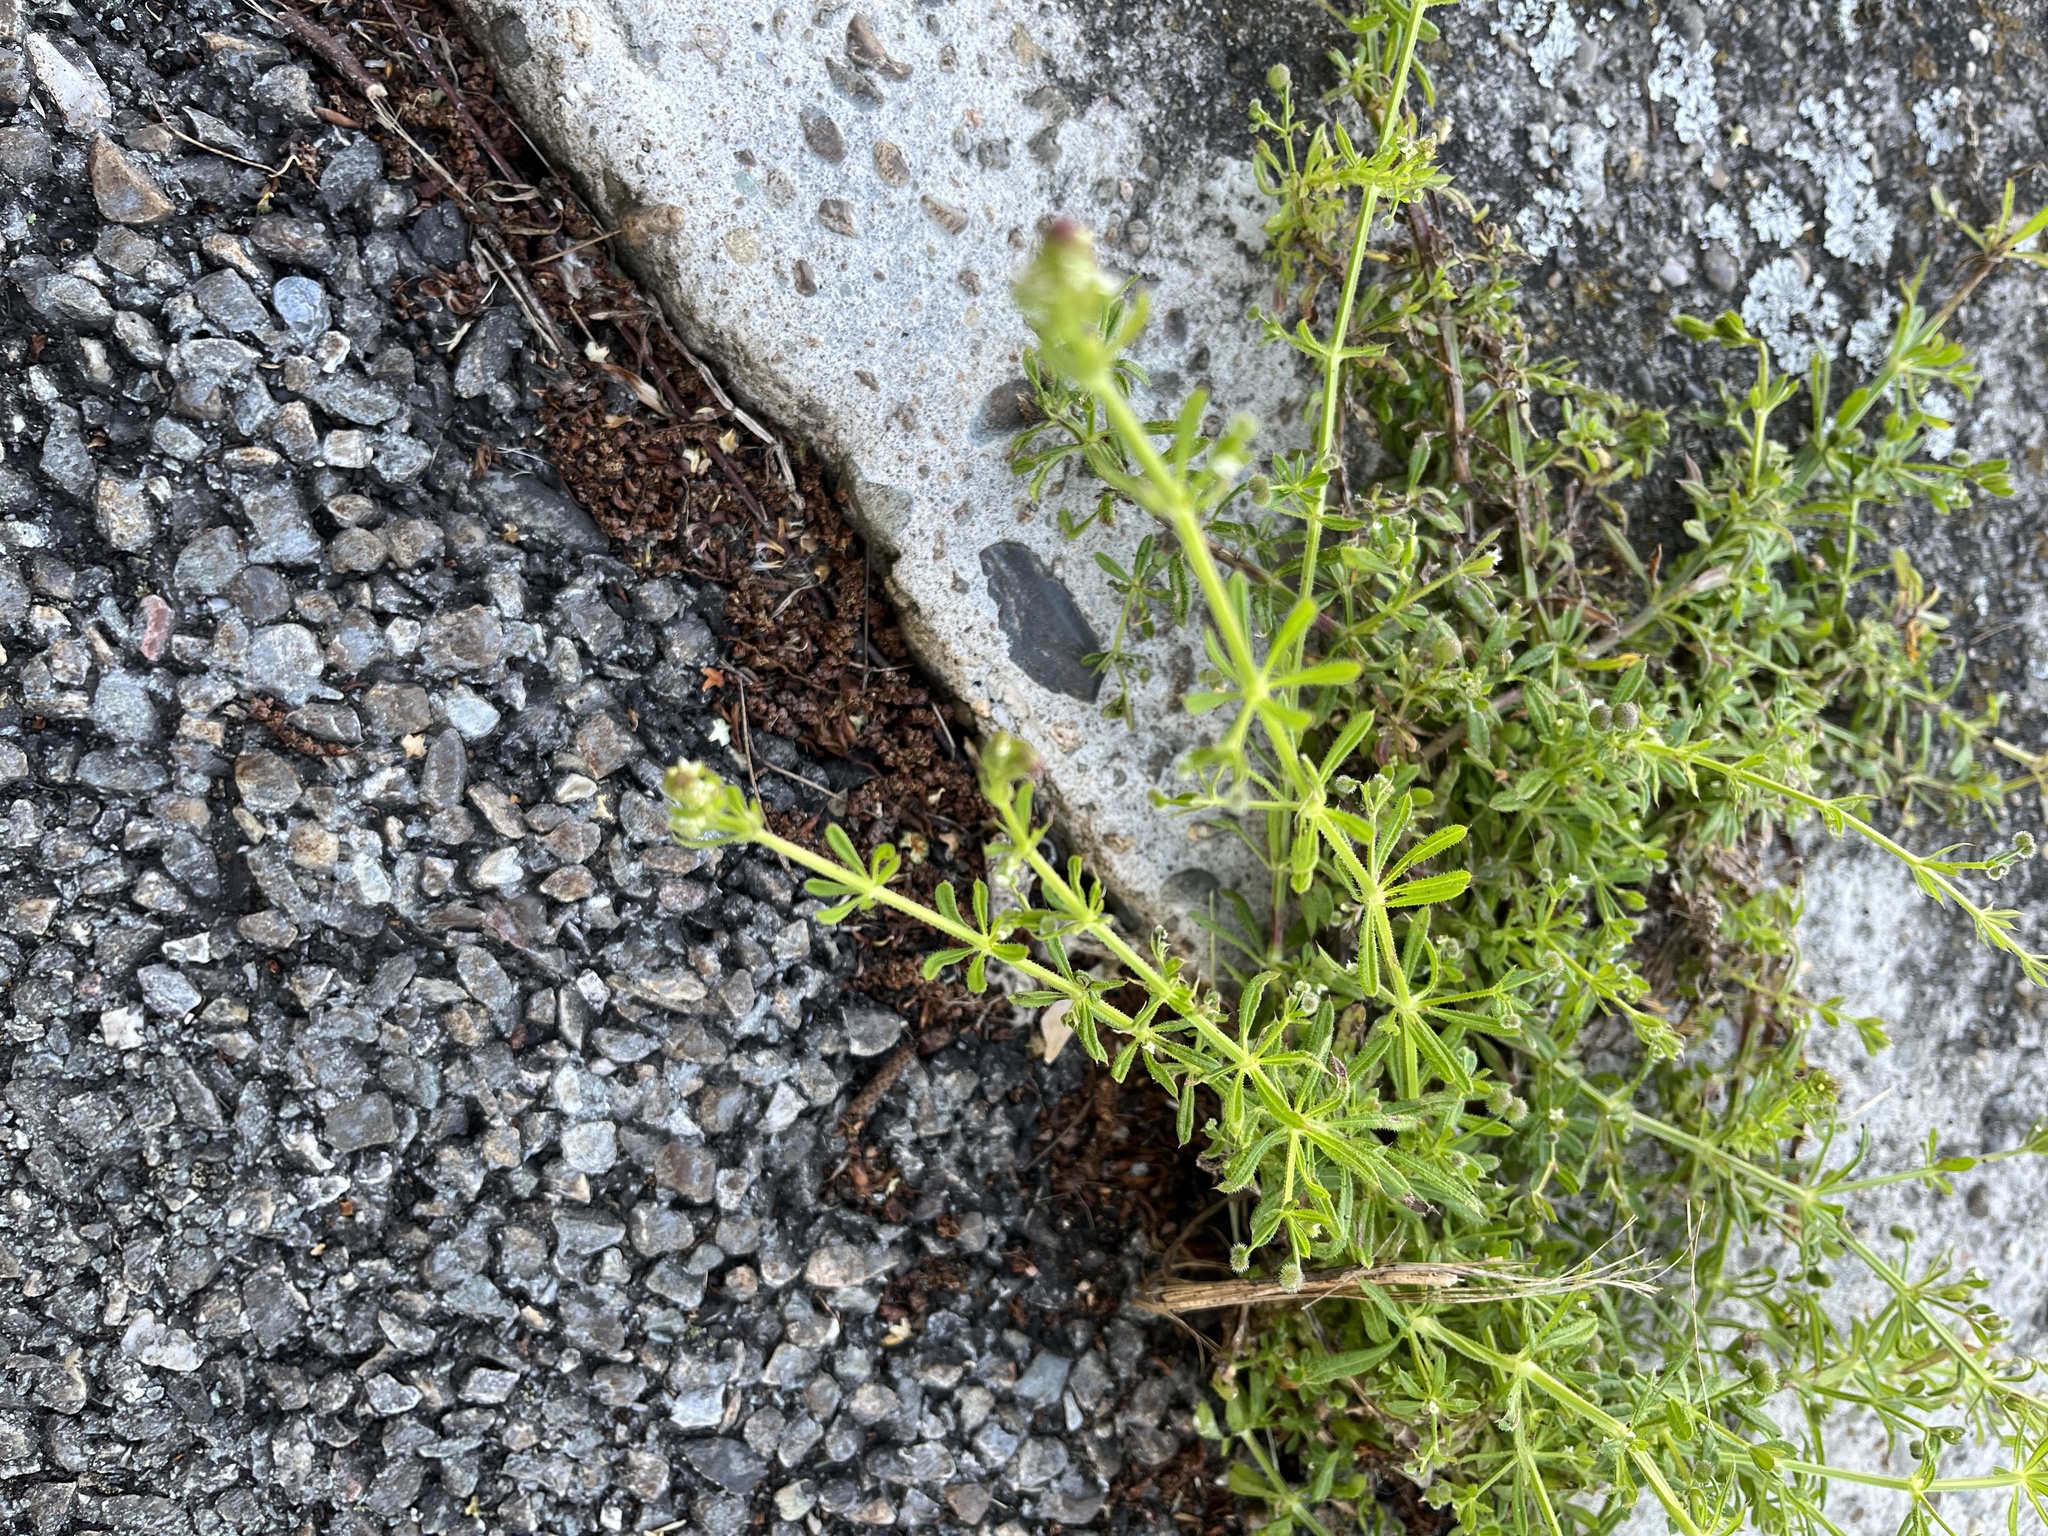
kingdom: Plantae
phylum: Tracheophyta
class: Magnoliopsida
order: Gentianales
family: Rubiaceae
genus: Galium
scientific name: Galium aparine
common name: Cleavers
